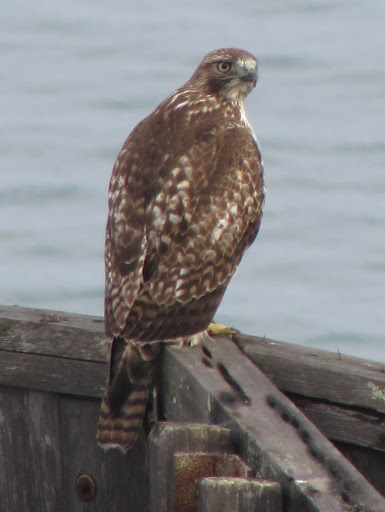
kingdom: Animalia
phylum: Chordata
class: Aves
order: Accipitriformes
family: Accipitridae
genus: Buteo
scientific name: Buteo jamaicensis
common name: Red-tailed hawk
